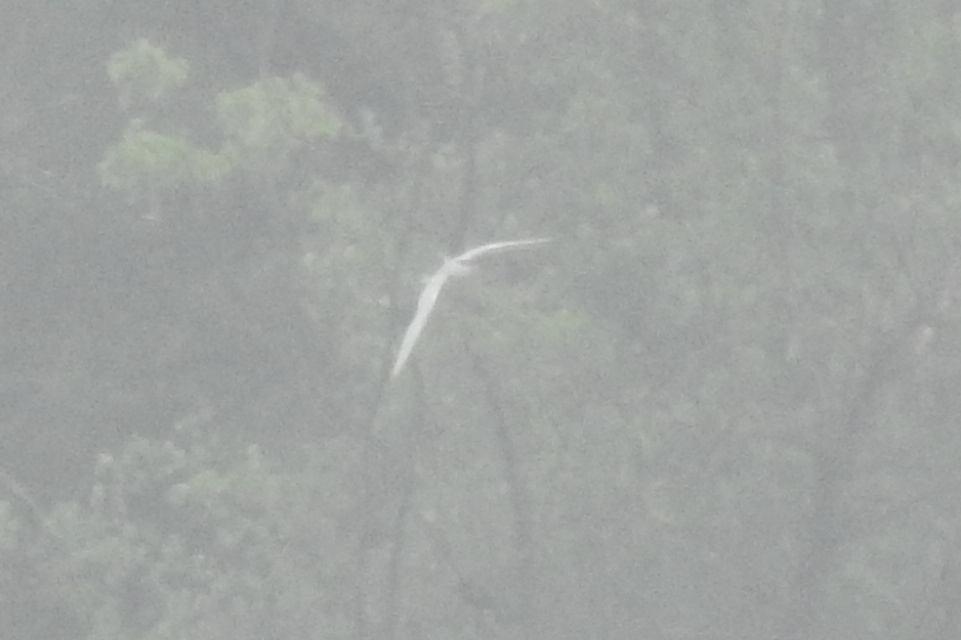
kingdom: Animalia
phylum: Chordata
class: Aves
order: Charadriiformes
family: Laridae
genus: Hydroprogne
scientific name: Hydroprogne caspia
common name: Caspian tern
